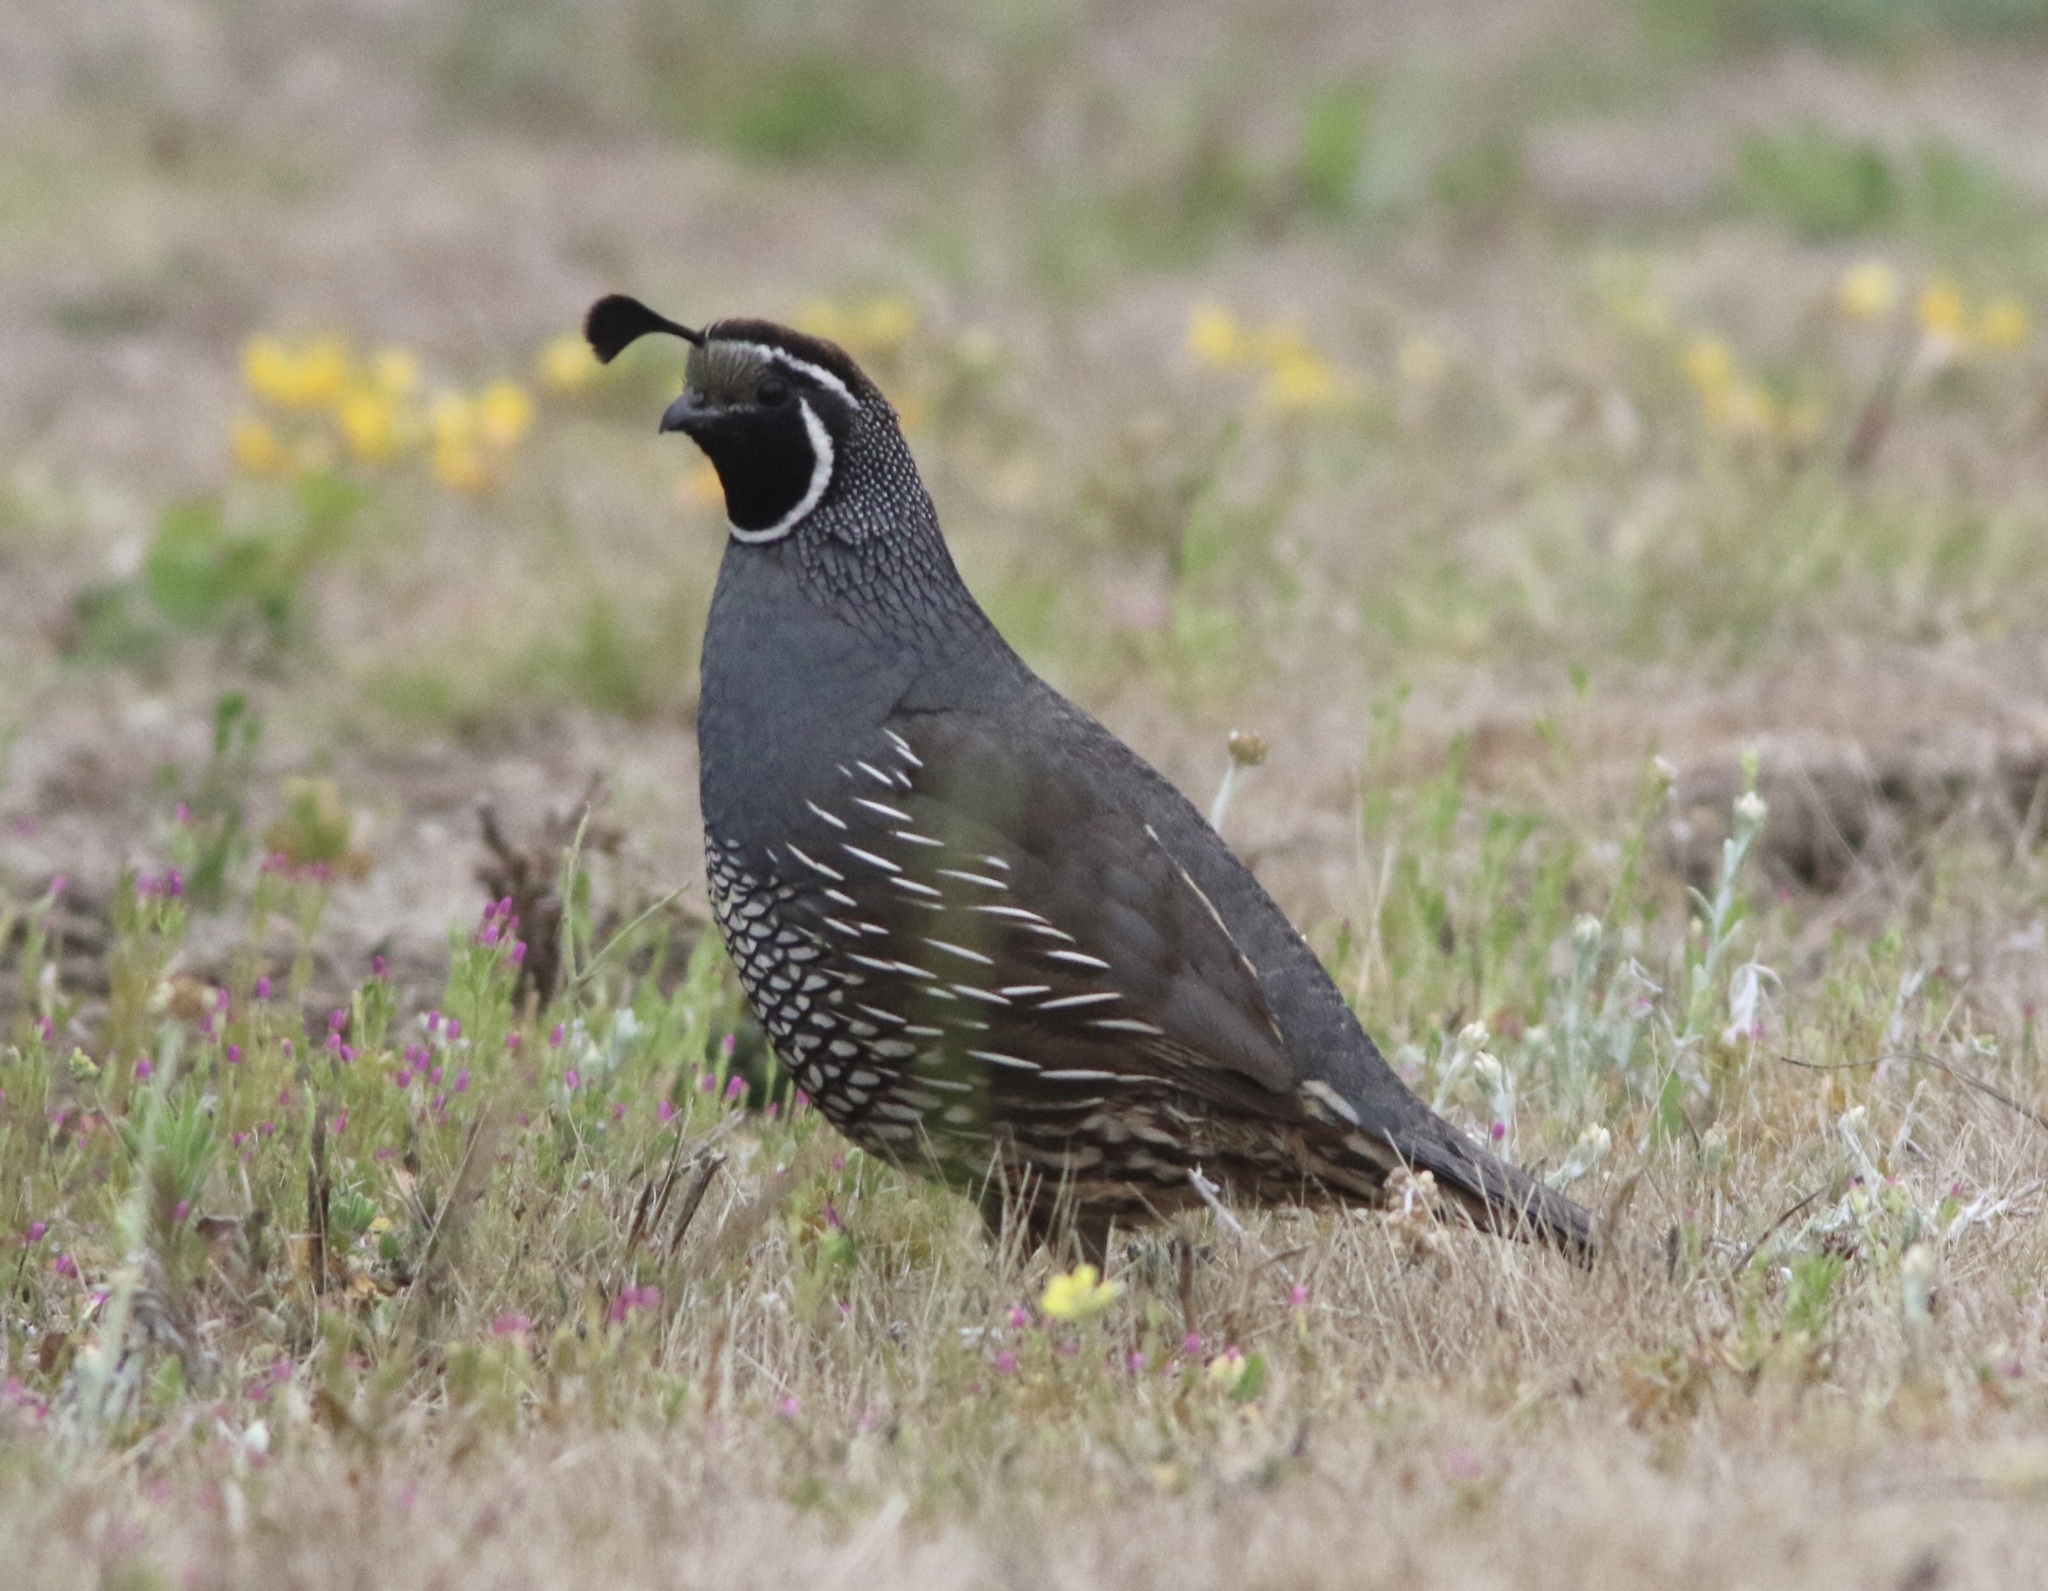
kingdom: Animalia
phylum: Chordata
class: Aves
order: Galliformes
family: Odontophoridae
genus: Callipepla
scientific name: Callipepla californica
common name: California quail
